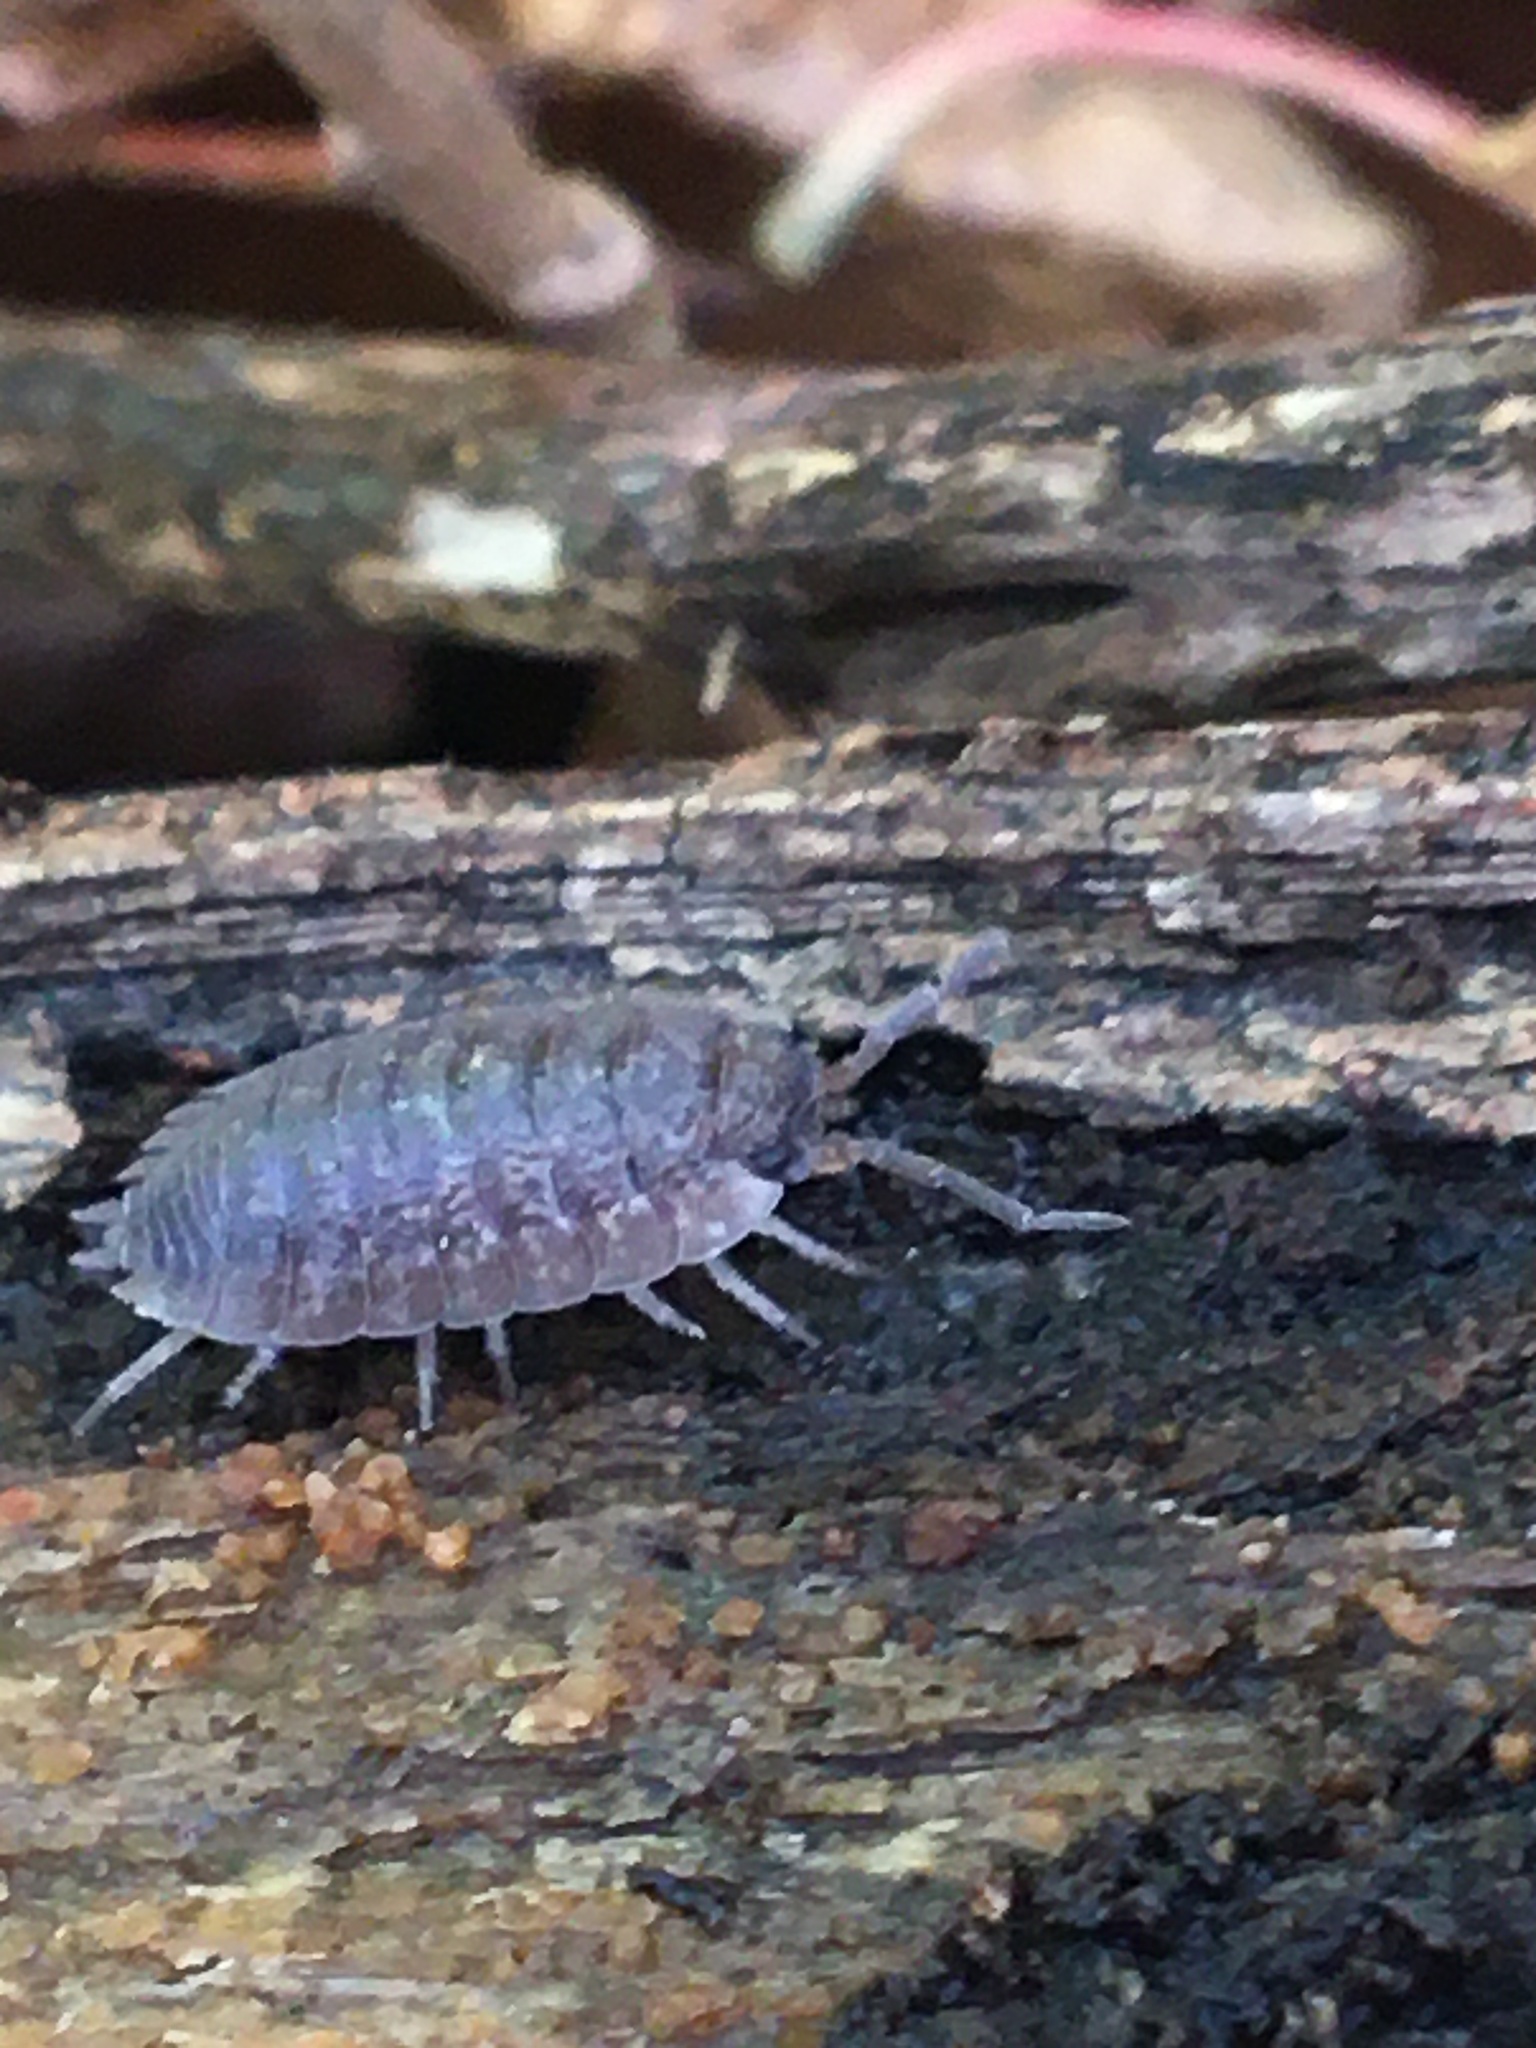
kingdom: Animalia
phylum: Arthropoda
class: Malacostraca
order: Isopoda
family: Porcellionidae
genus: Porcellio
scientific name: Porcellio scaber
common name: Common rough woodlouse
